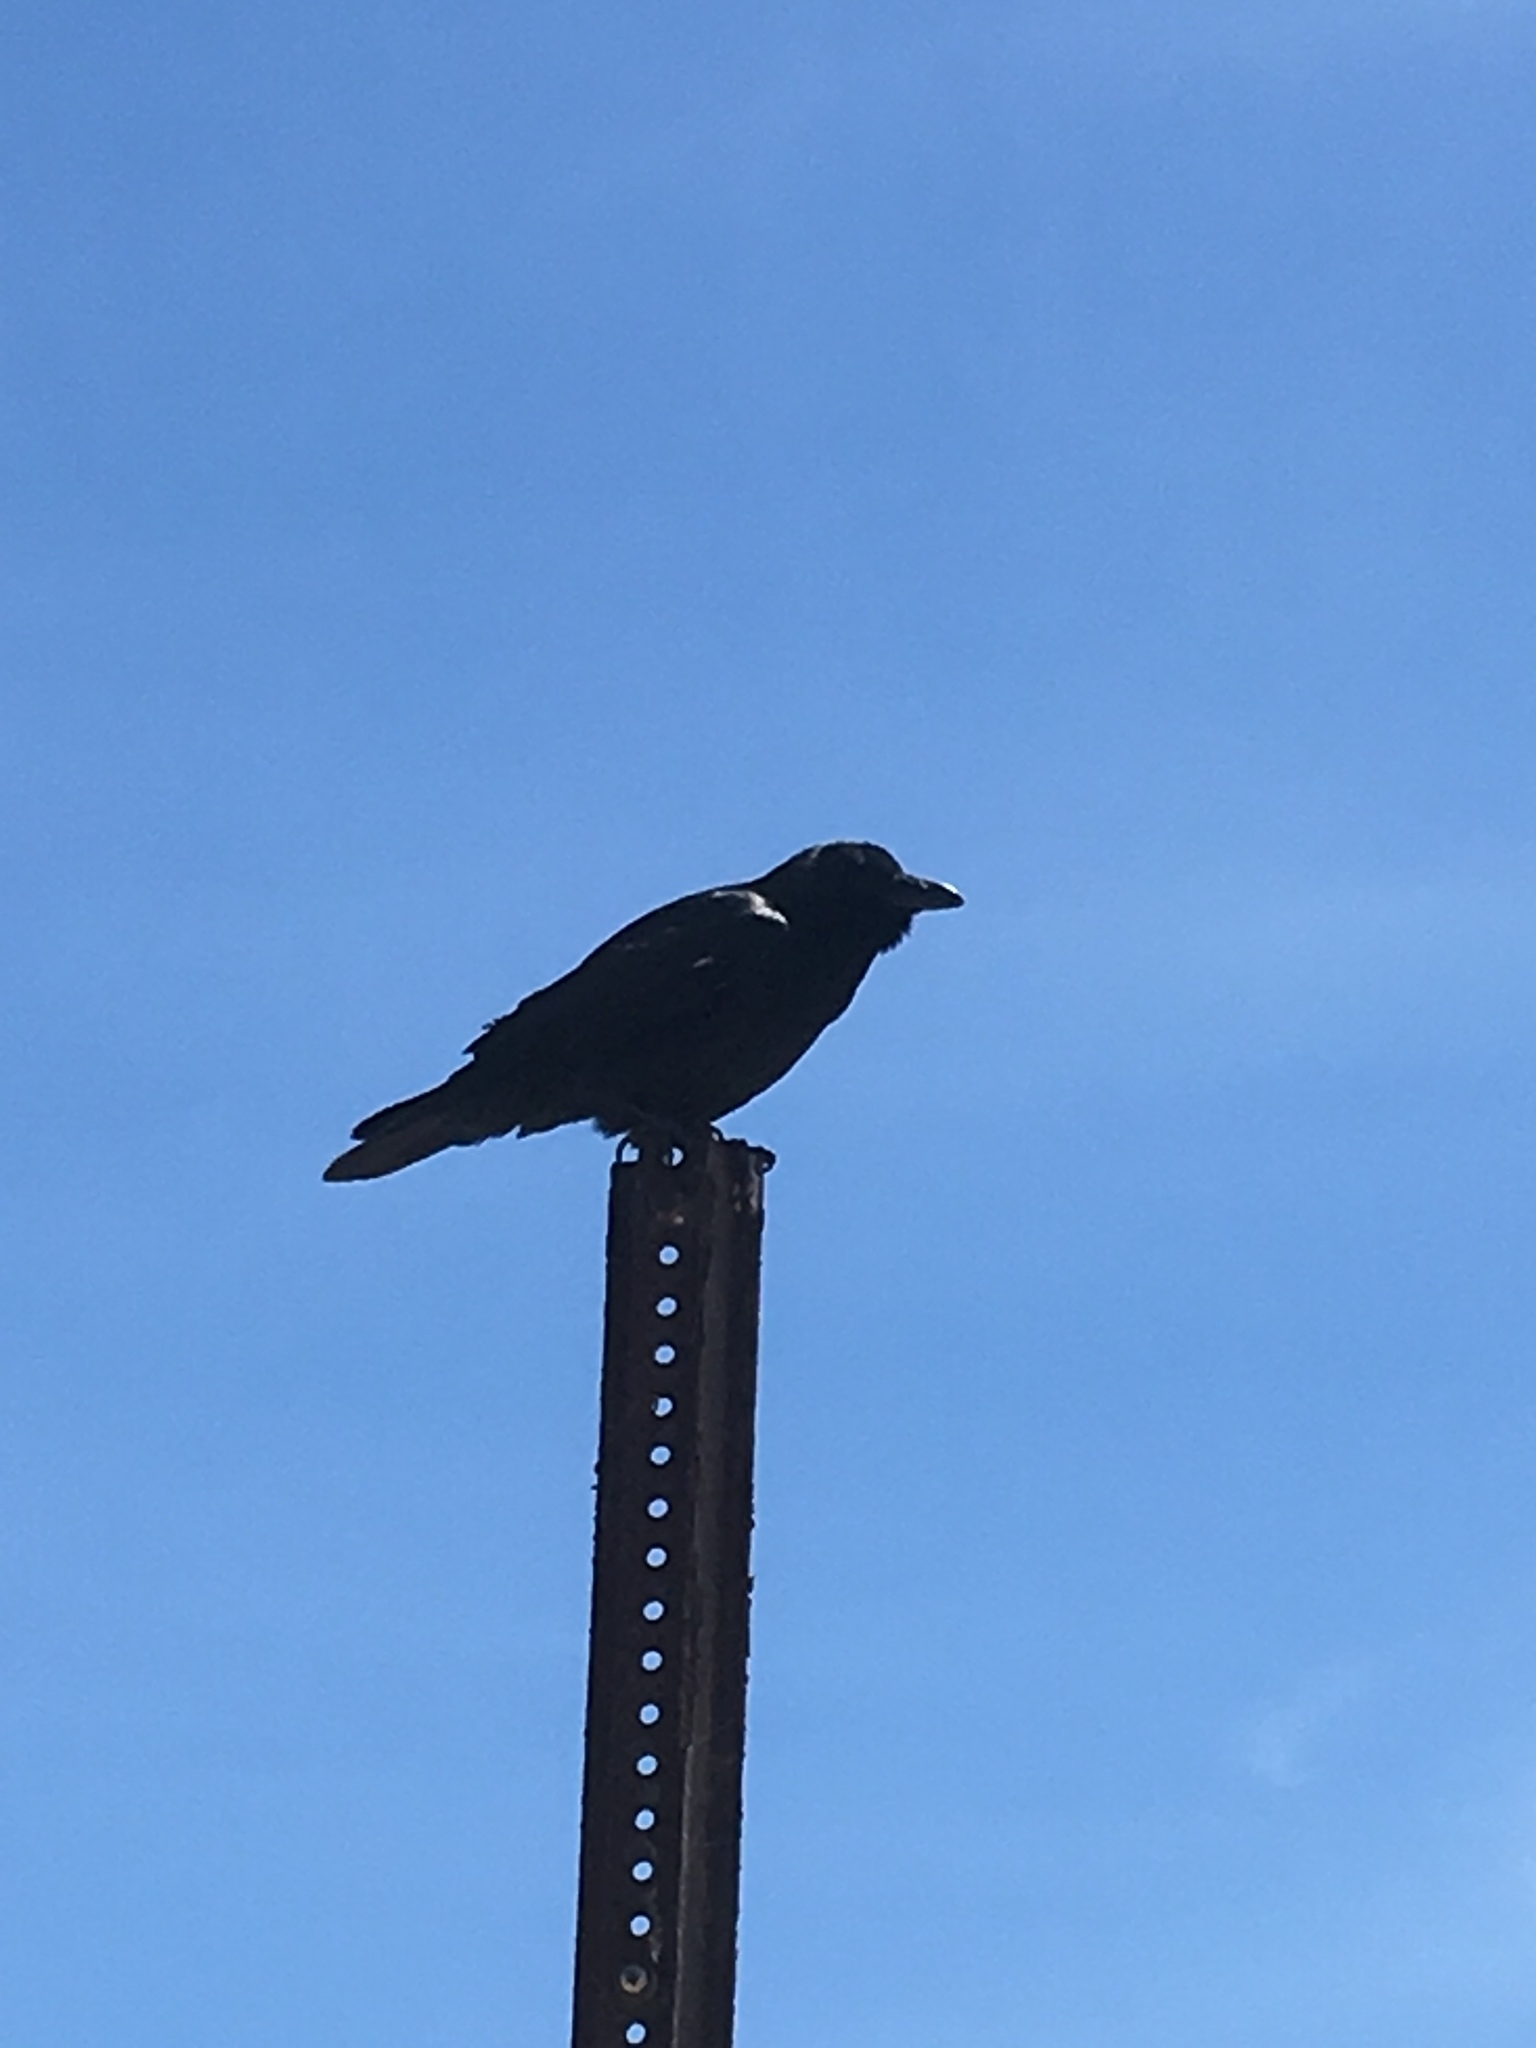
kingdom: Animalia
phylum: Chordata
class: Aves
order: Passeriformes
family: Corvidae
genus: Corvus
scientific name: Corvus brachyrhynchos
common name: American crow
